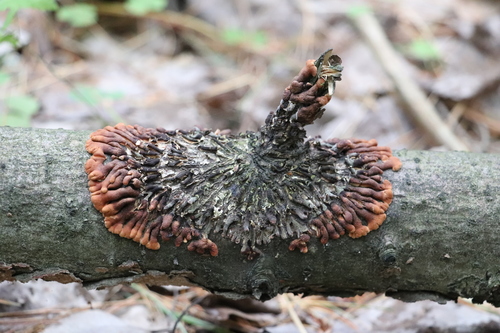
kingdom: Fungi
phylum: Ascomycota
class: Sordariomycetes
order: Hypocreales
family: Hypocreaceae
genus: Hypocreopsis
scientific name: Hypocreopsis lichenoides
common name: Willow gloves
